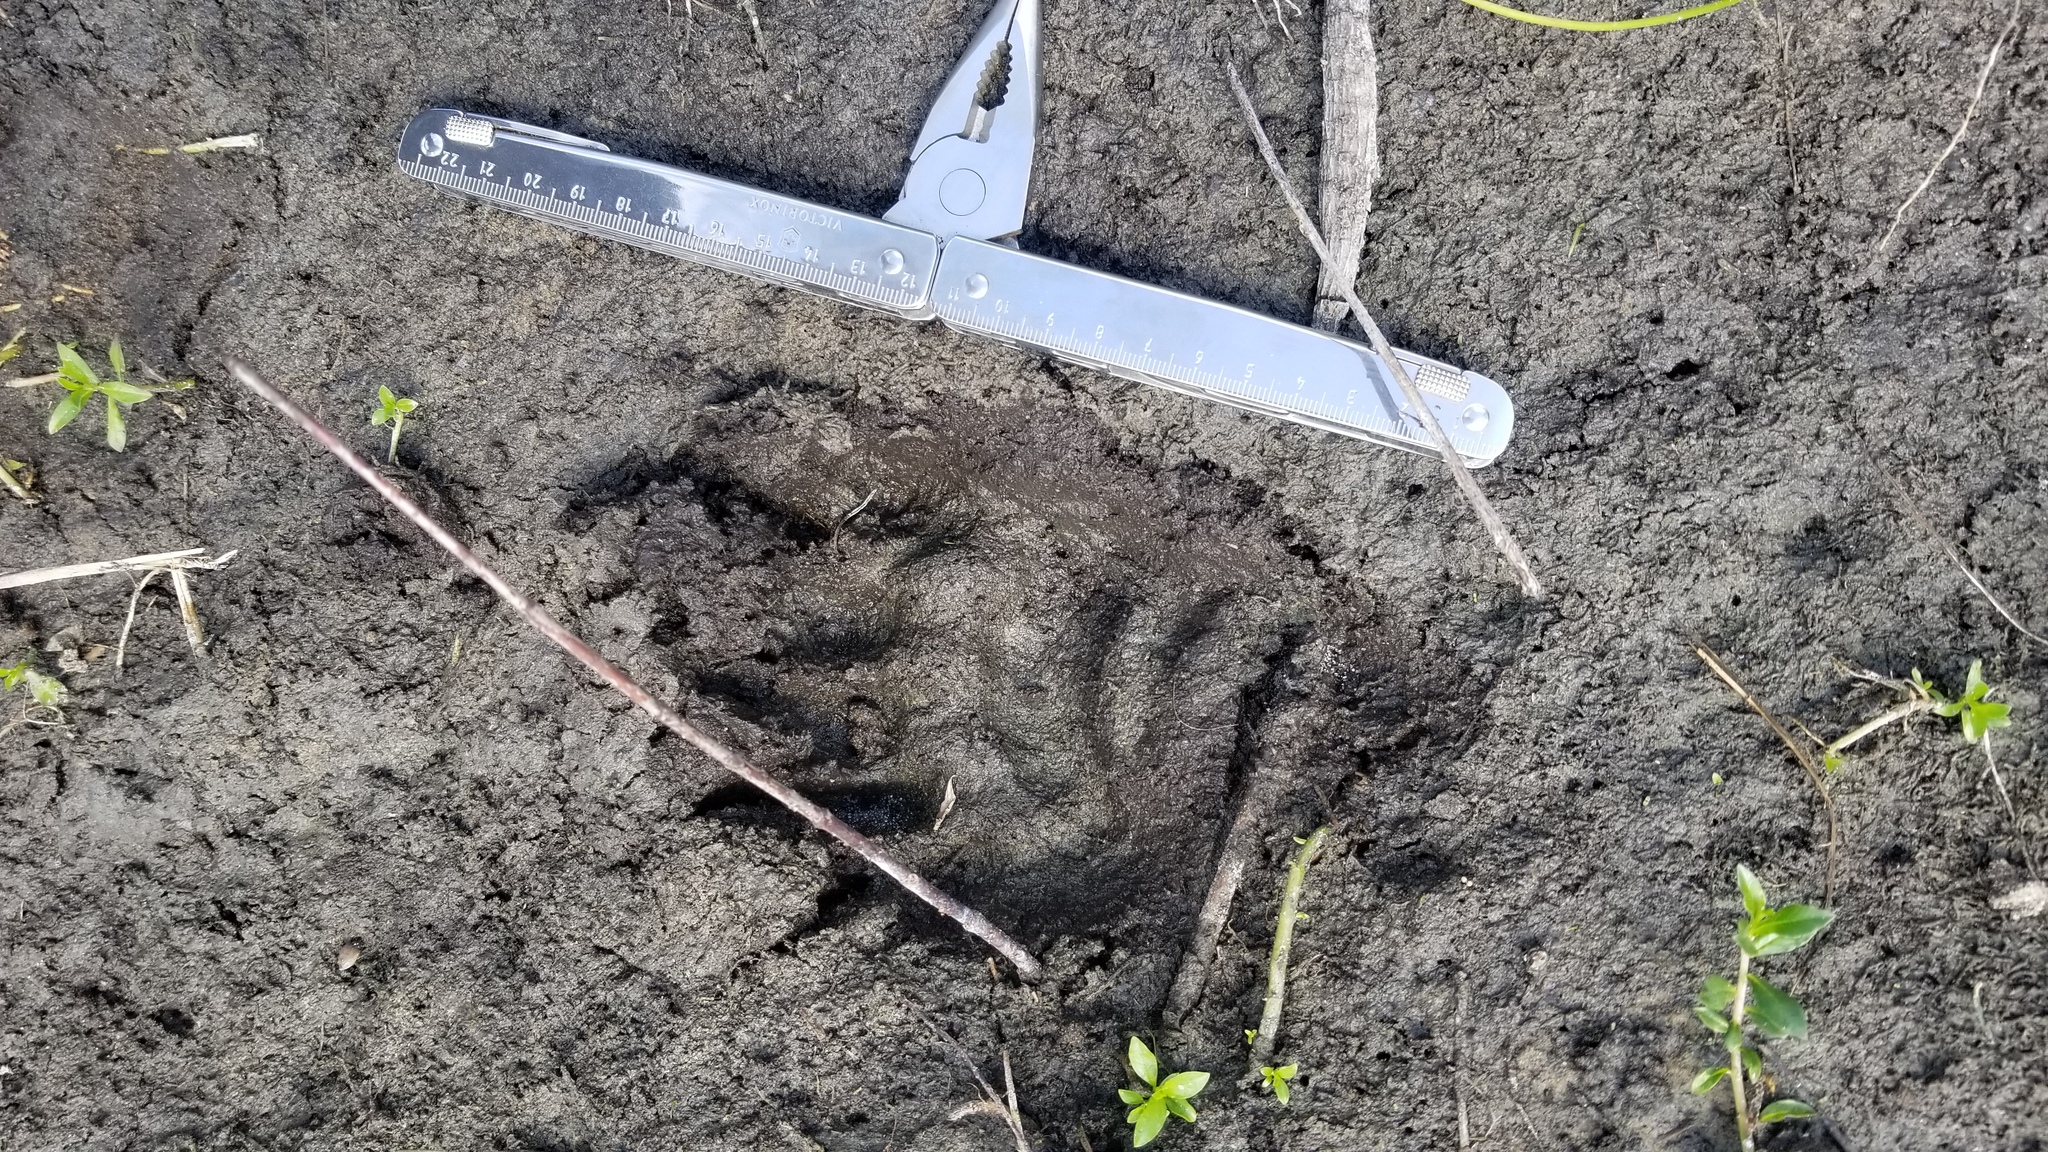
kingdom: Animalia
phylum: Chordata
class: Crocodylia
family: Alligatoridae
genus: Alligator
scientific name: Alligator mississippiensis
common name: American alligator
